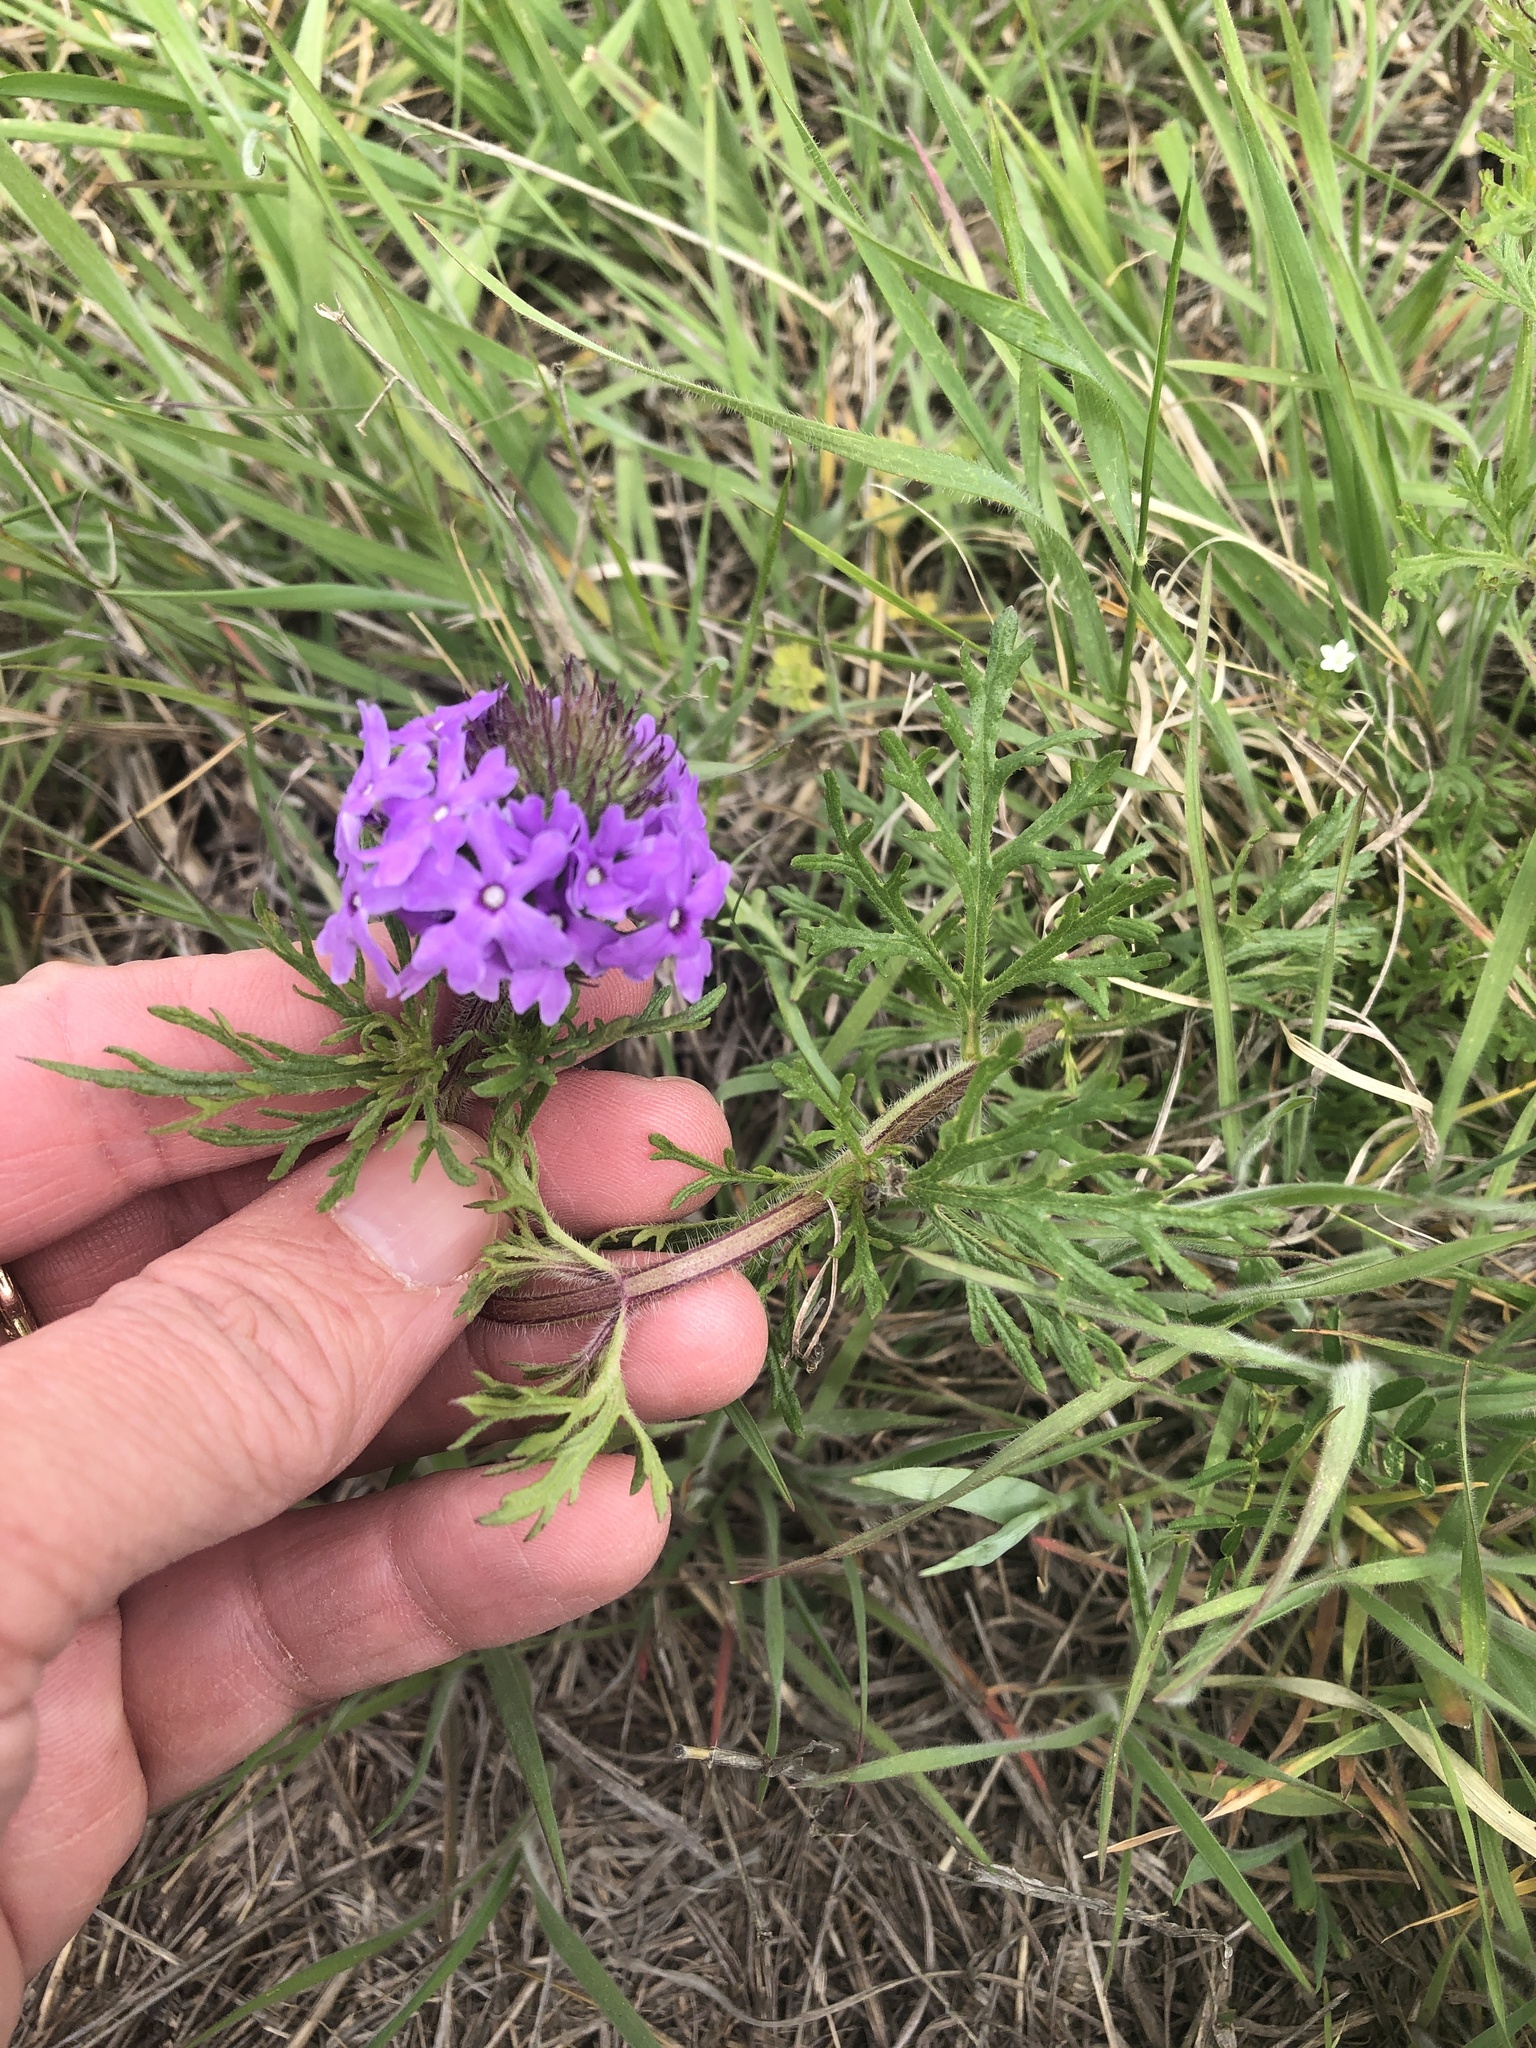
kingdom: Plantae
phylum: Tracheophyta
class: Magnoliopsida
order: Lamiales
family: Verbenaceae
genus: Verbena
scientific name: Verbena bipinnatifida
